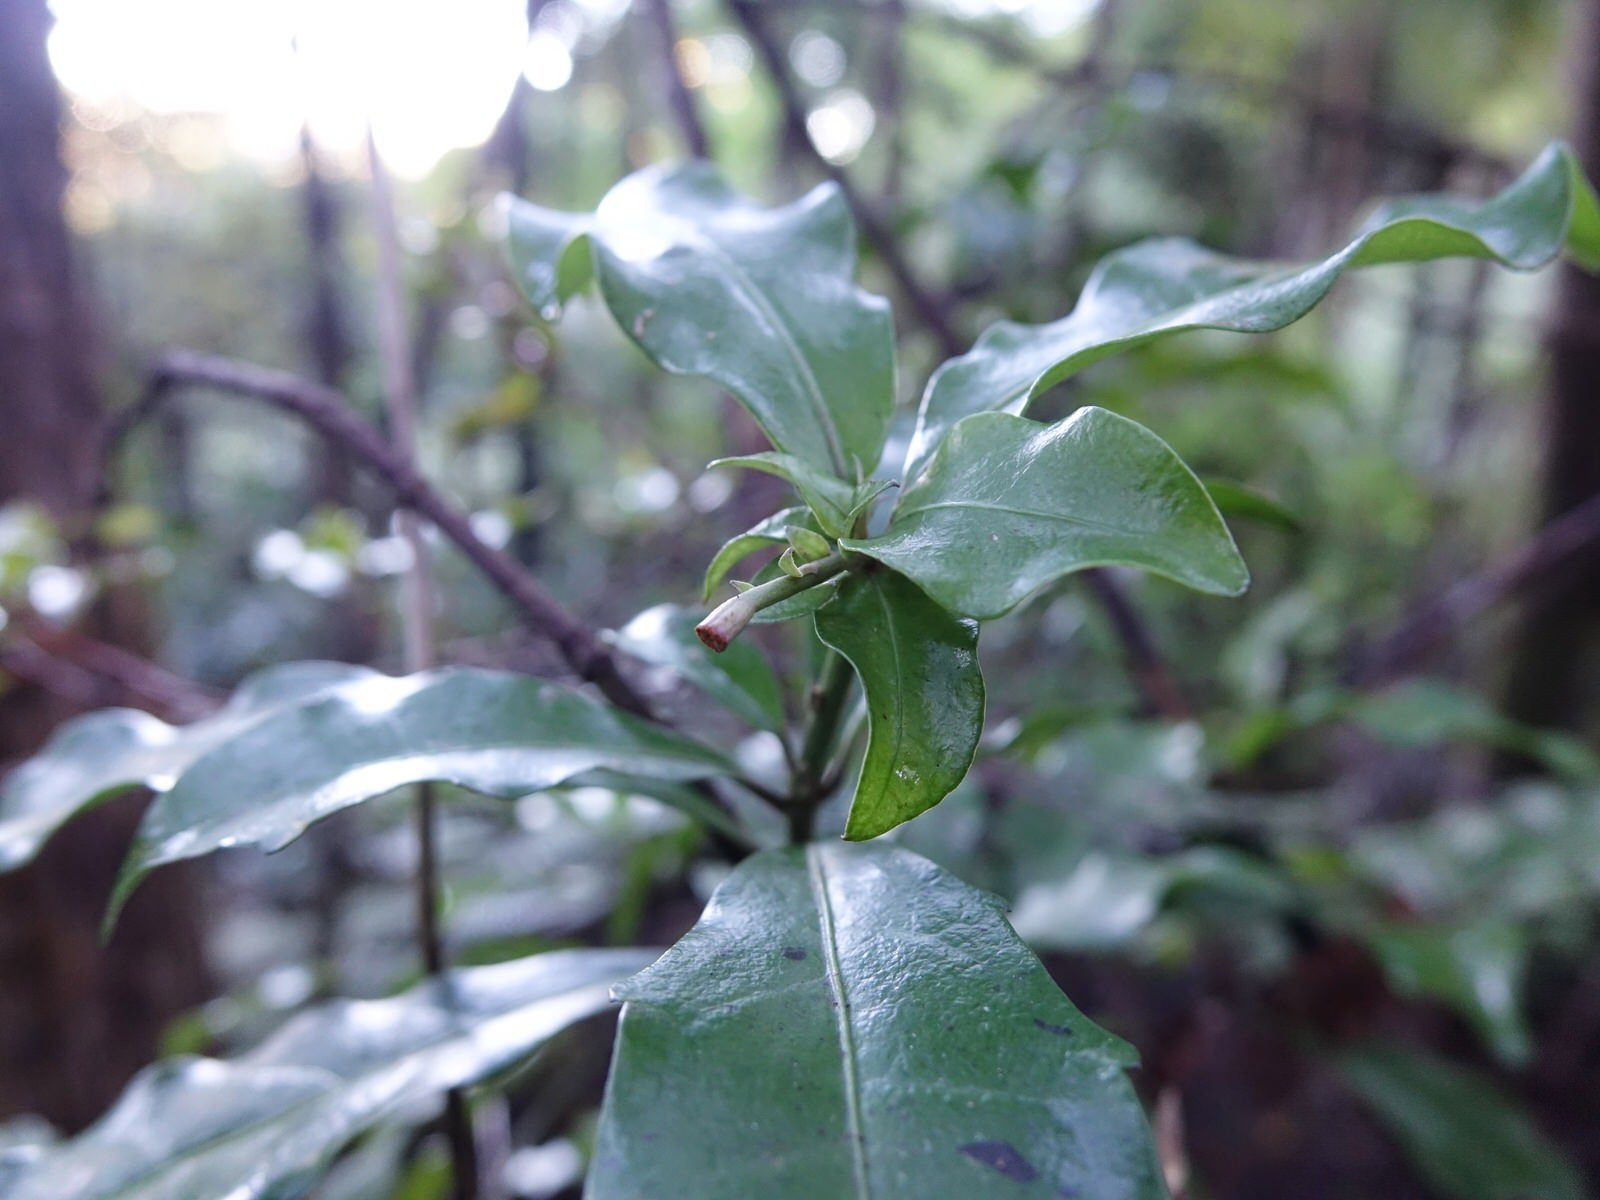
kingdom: Plantae
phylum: Tracheophyta
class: Magnoliopsida
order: Asterales
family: Alseuosmiaceae
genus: Alseuosmia
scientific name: Alseuosmia macrophylla
